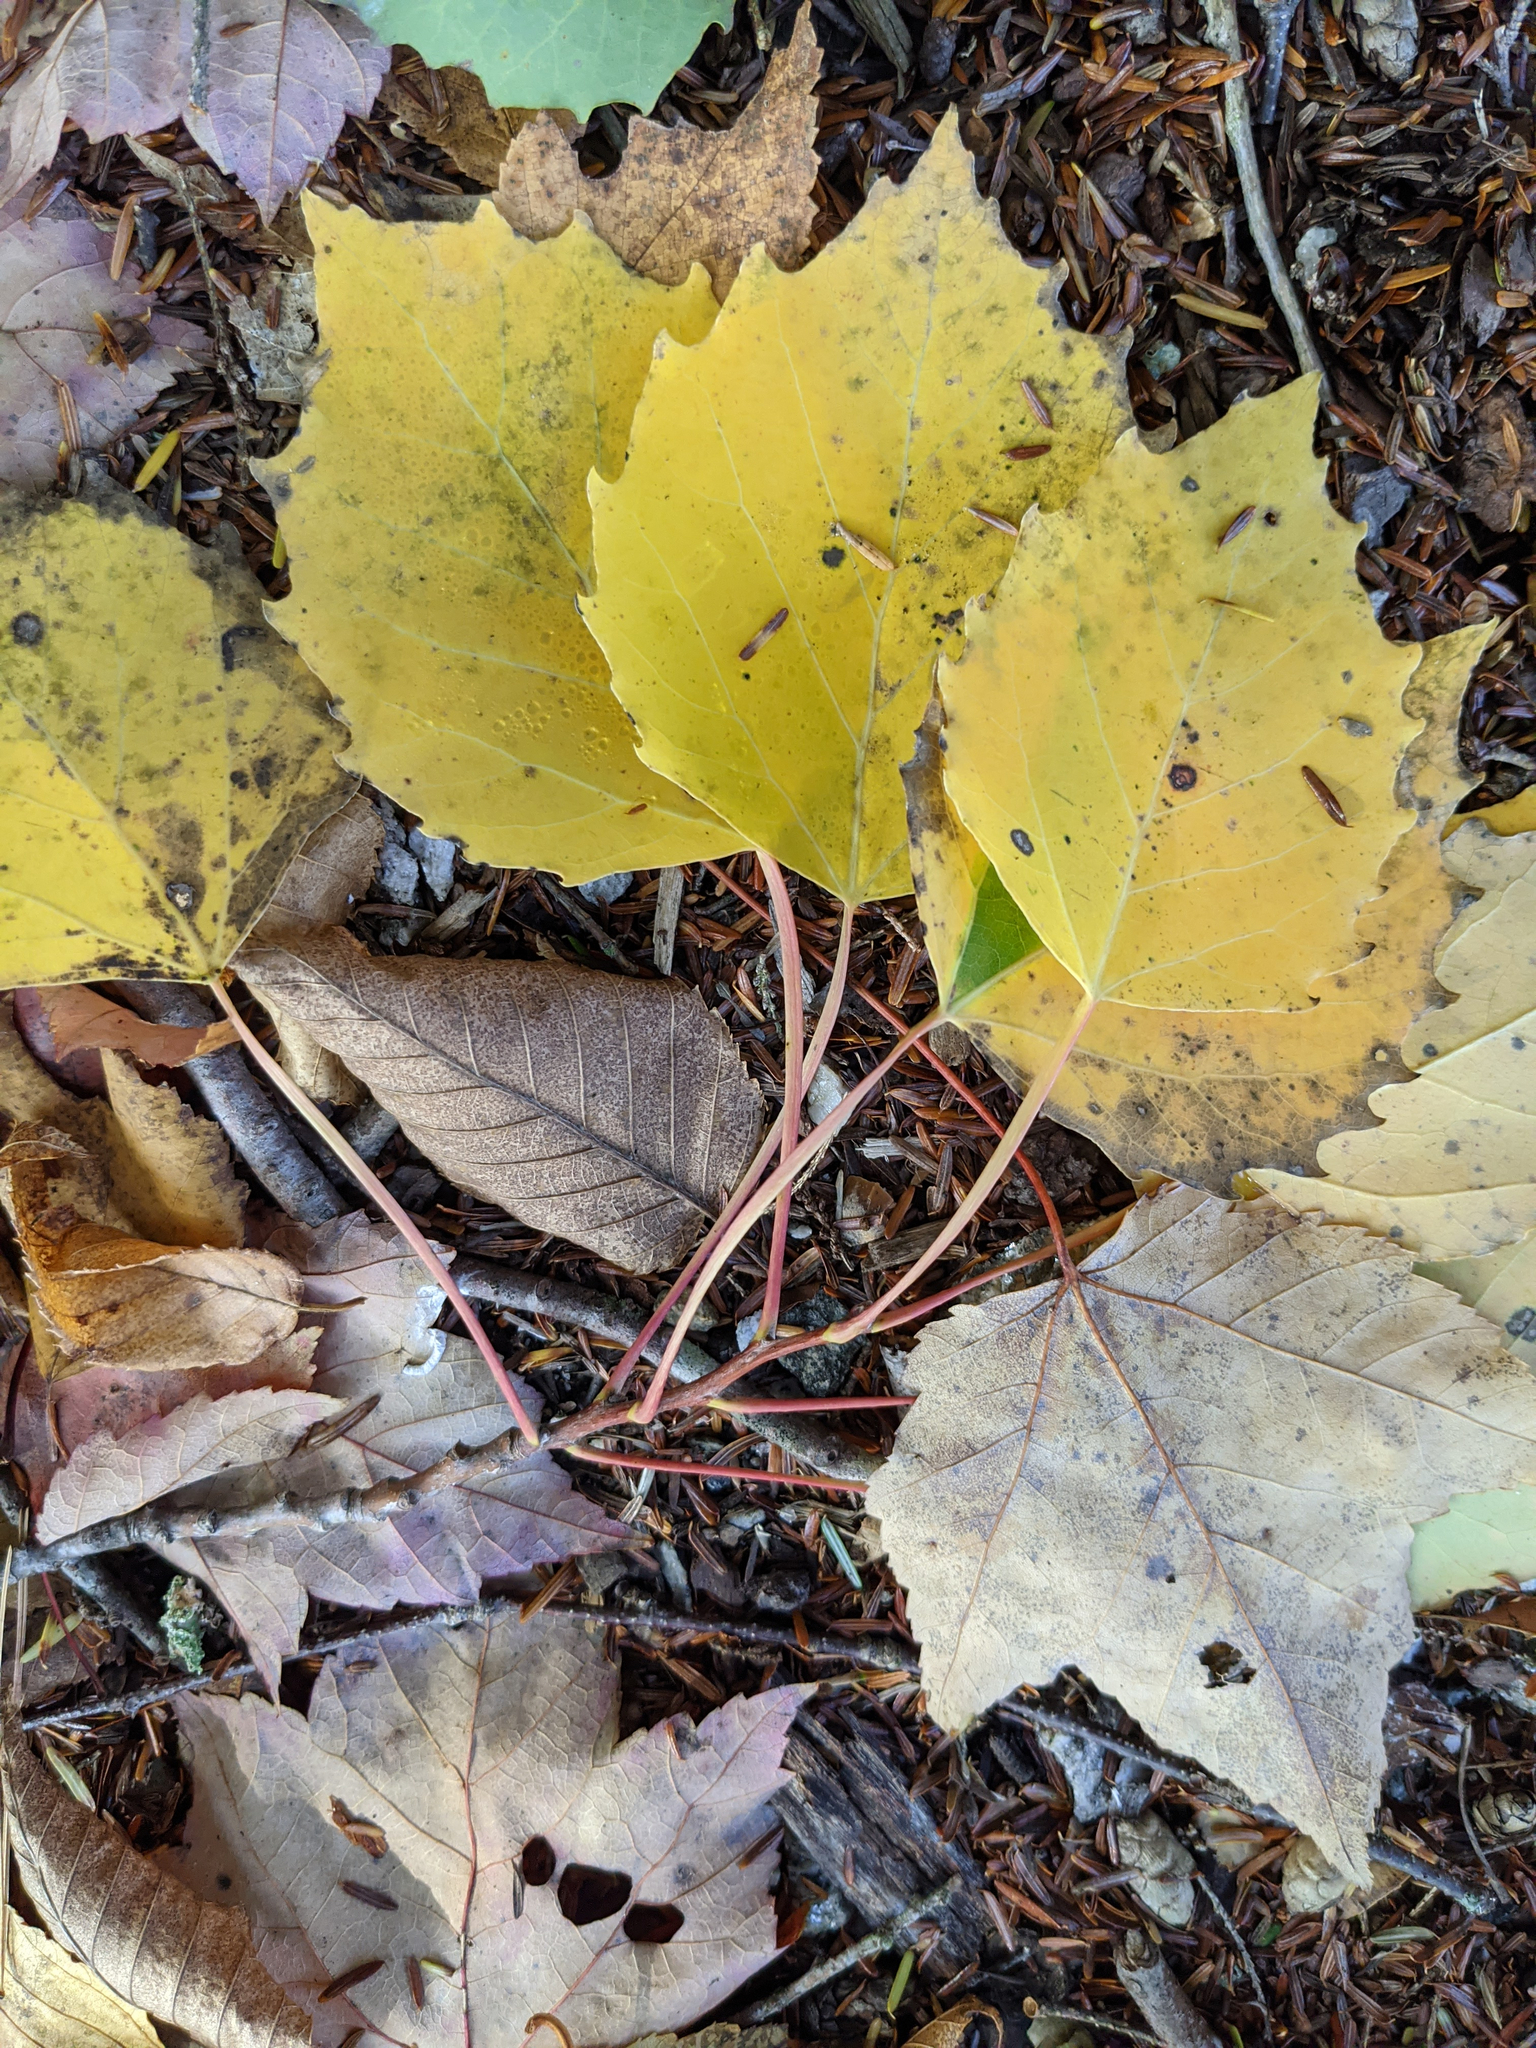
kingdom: Plantae
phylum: Tracheophyta
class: Magnoliopsida
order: Malpighiales
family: Salicaceae
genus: Populus
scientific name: Populus grandidentata
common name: Bigtooth aspen
